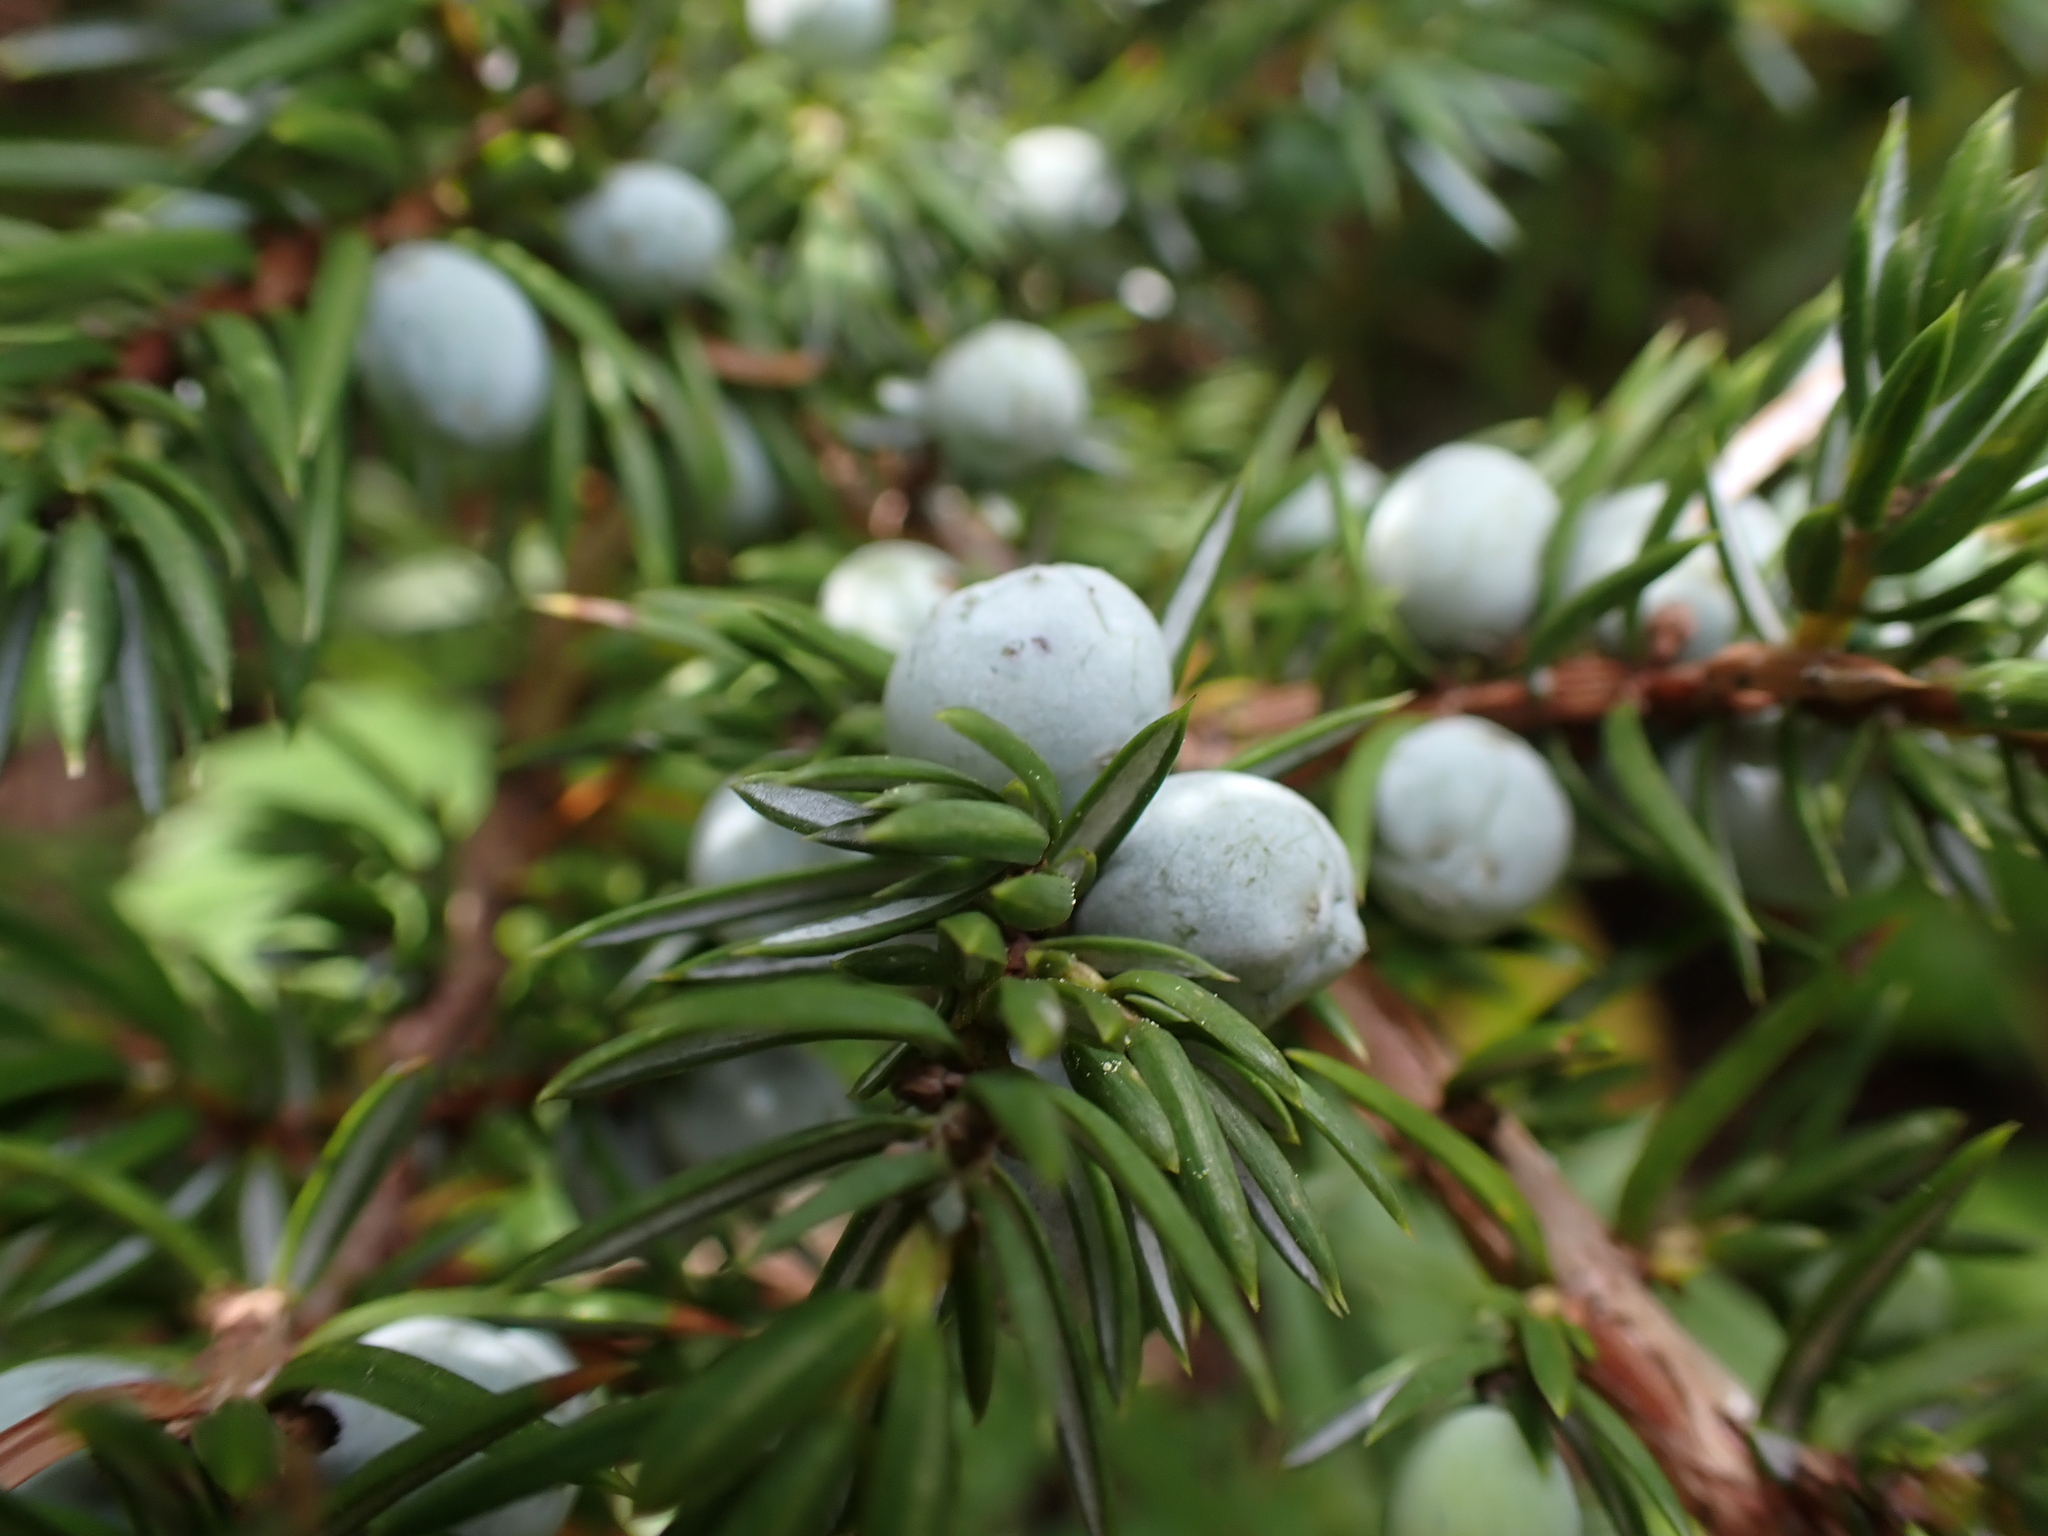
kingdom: Plantae
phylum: Tracheophyta
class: Pinopsida
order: Pinales
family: Cupressaceae
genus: Juniperus
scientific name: Juniperus communis
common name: Common juniper
